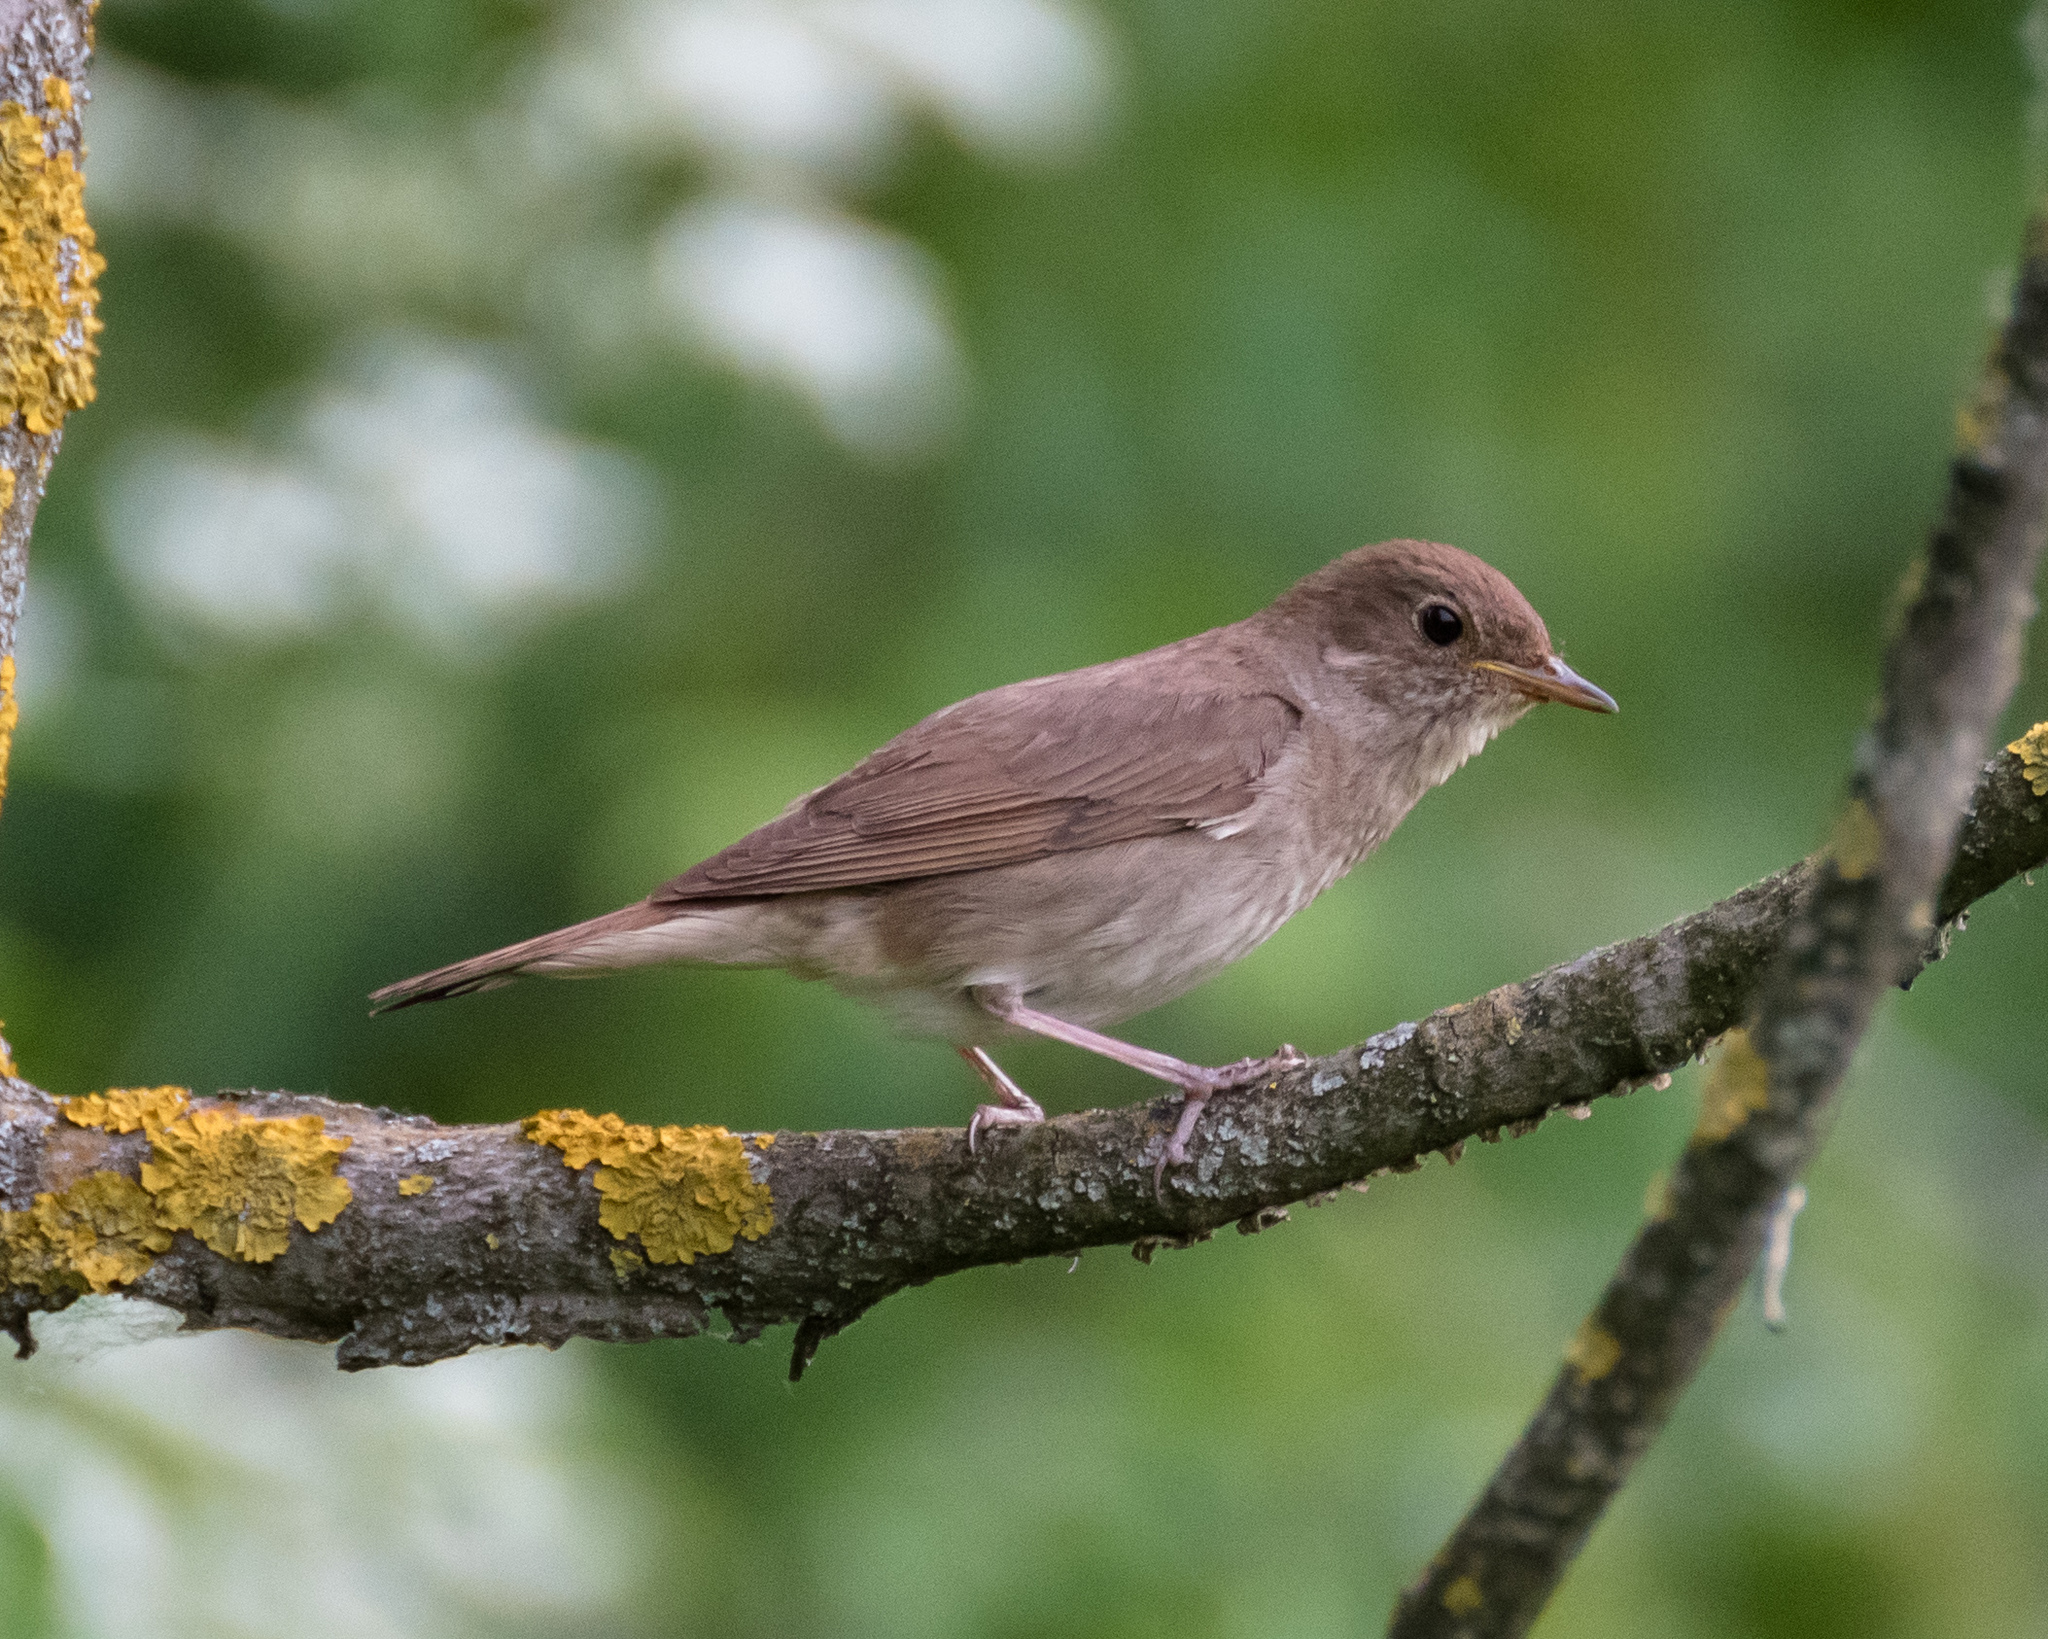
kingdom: Animalia
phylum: Chordata
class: Aves
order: Passeriformes
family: Muscicapidae
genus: Luscinia
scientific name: Luscinia luscinia
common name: Thrush nightingale
